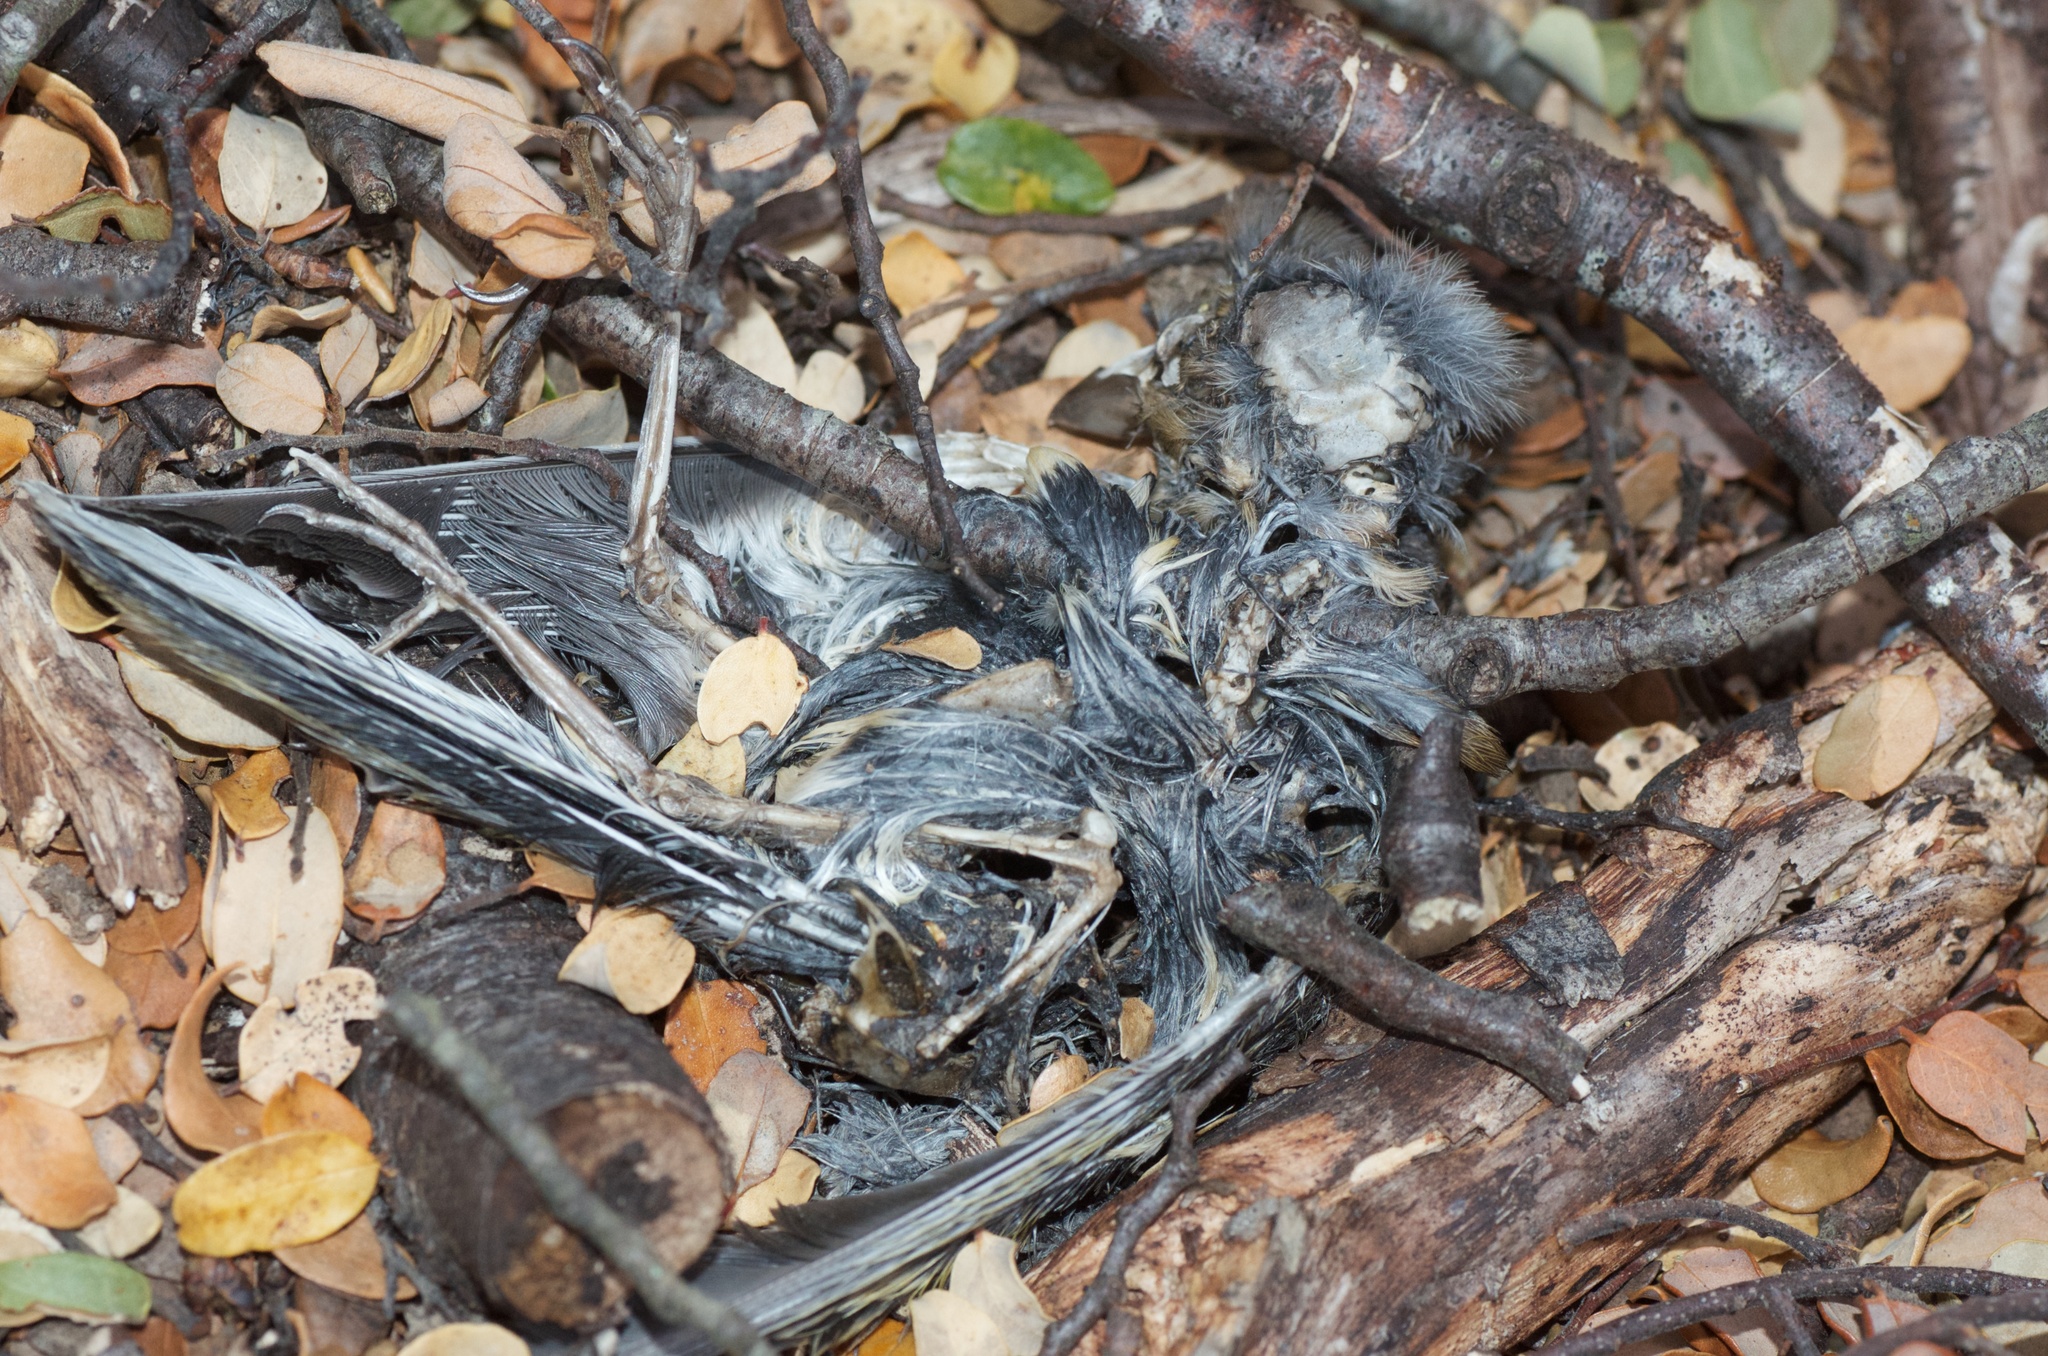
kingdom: Animalia
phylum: Chordata
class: Aves
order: Passeriformes
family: Fringillidae
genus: Fringilla
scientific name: Fringilla coelebs
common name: Common chaffinch
